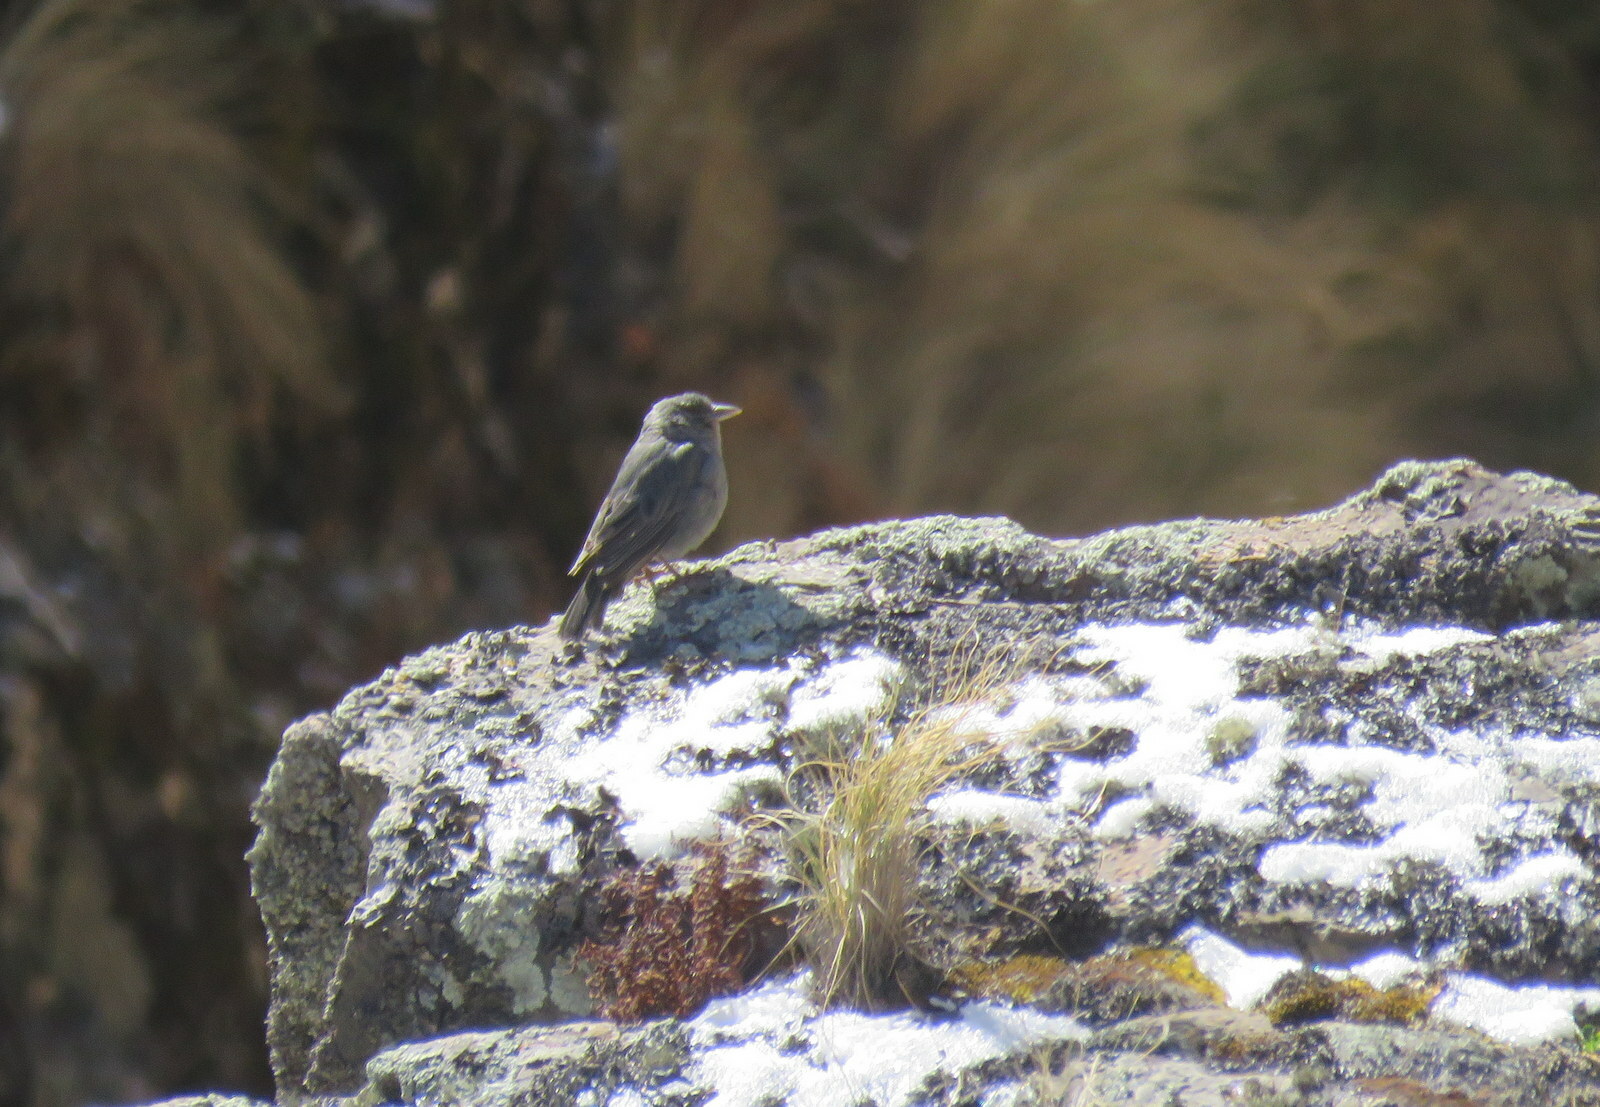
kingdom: Animalia
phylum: Chordata
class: Aves
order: Passeriformes
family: Thraupidae
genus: Idiopsar
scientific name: Idiopsar brachyurus
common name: Short-tailed finch
